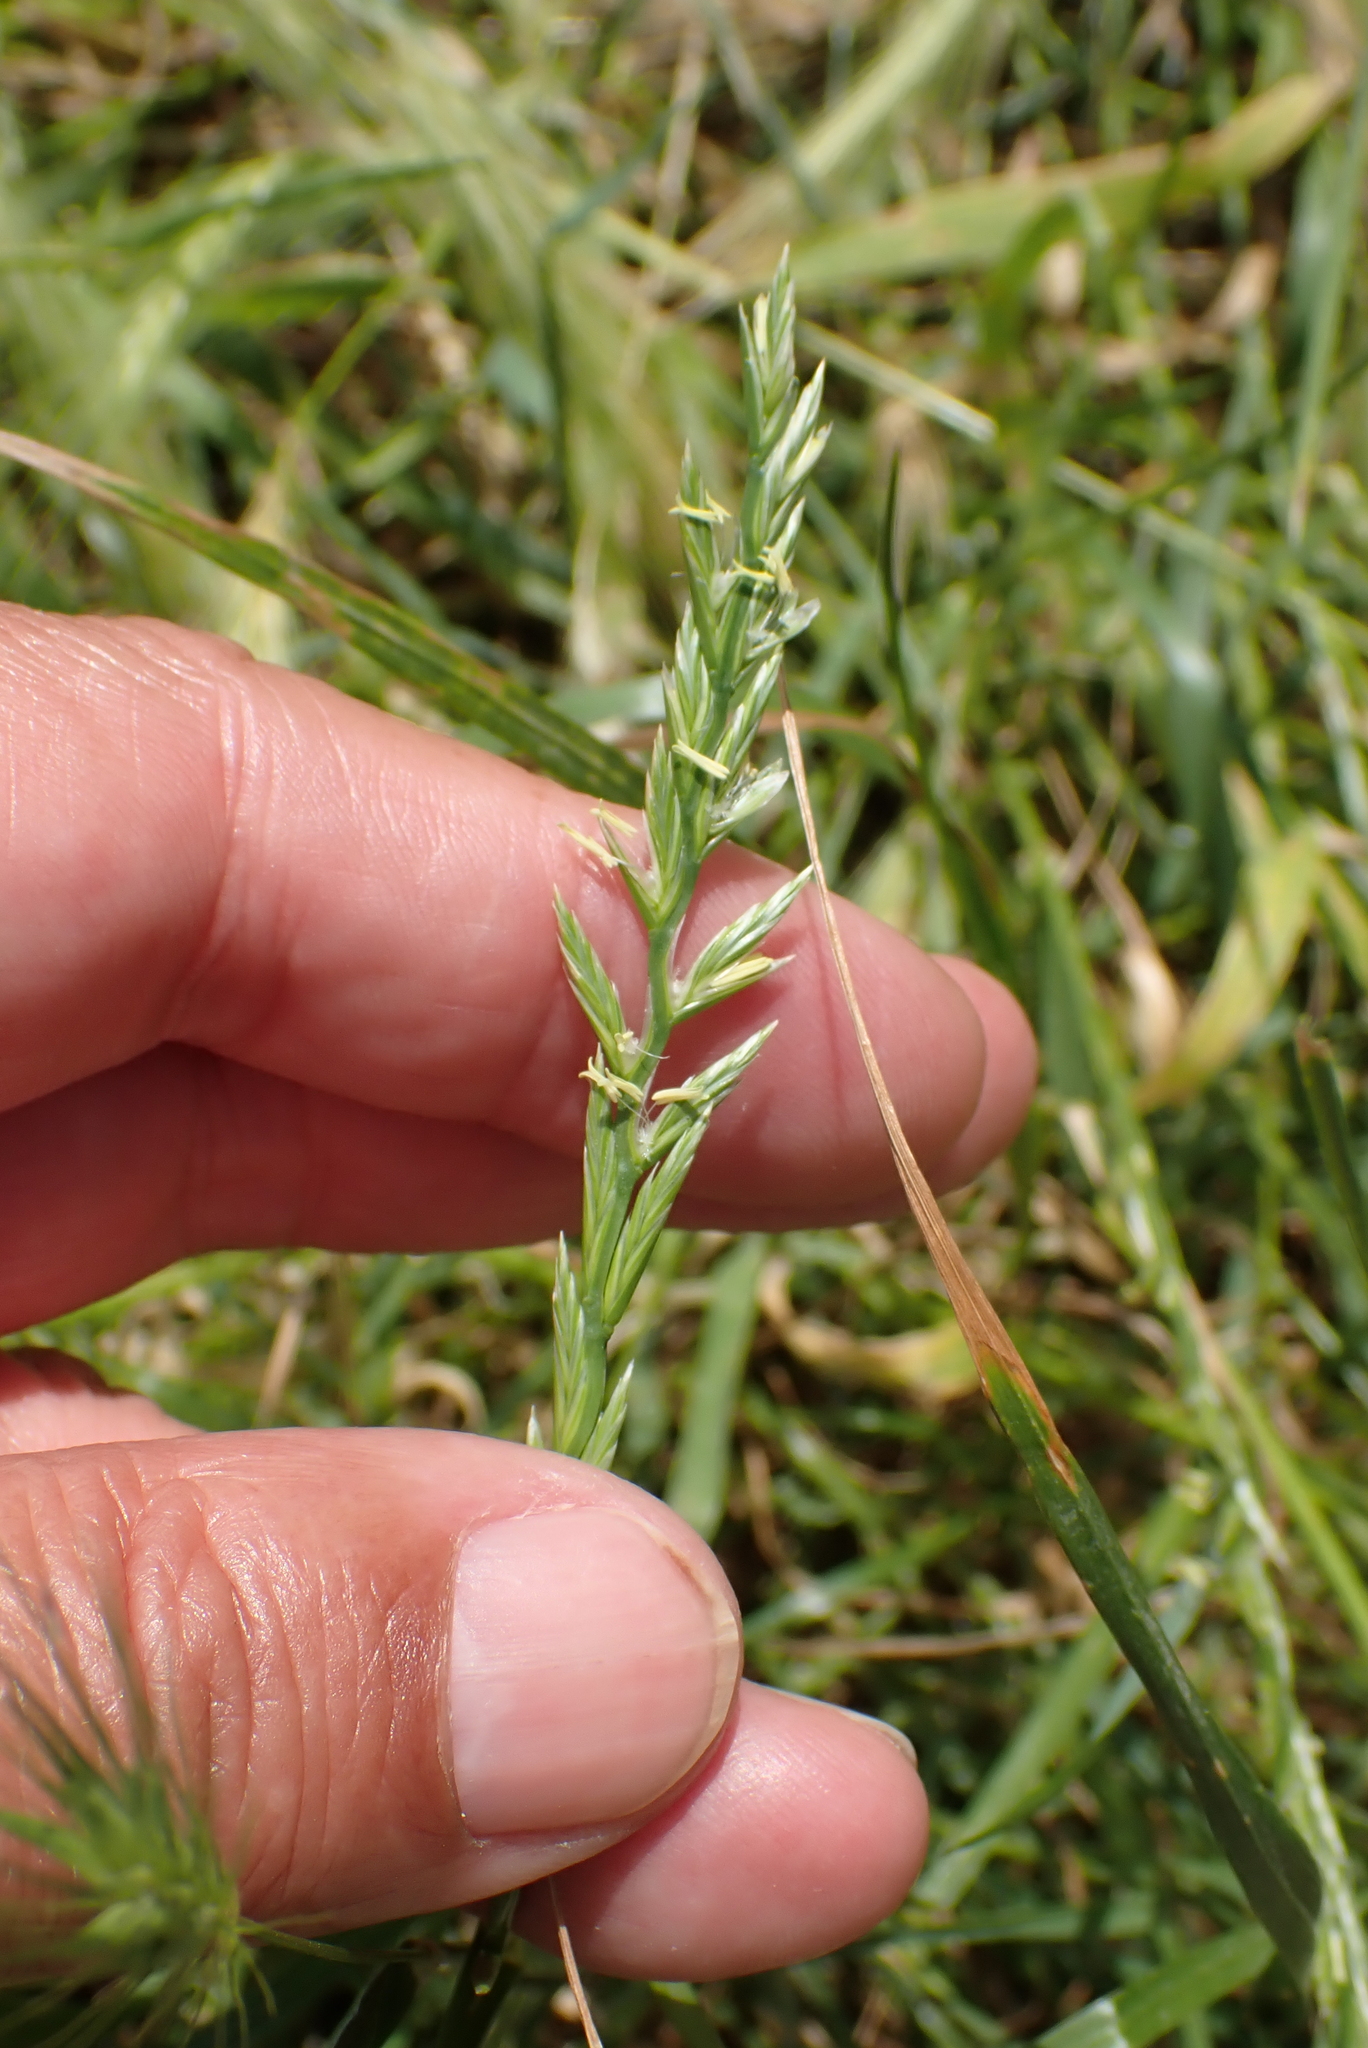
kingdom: Plantae
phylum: Tracheophyta
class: Liliopsida
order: Poales
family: Poaceae
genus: Lolium
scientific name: Lolium perenne
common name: Perennial ryegrass
